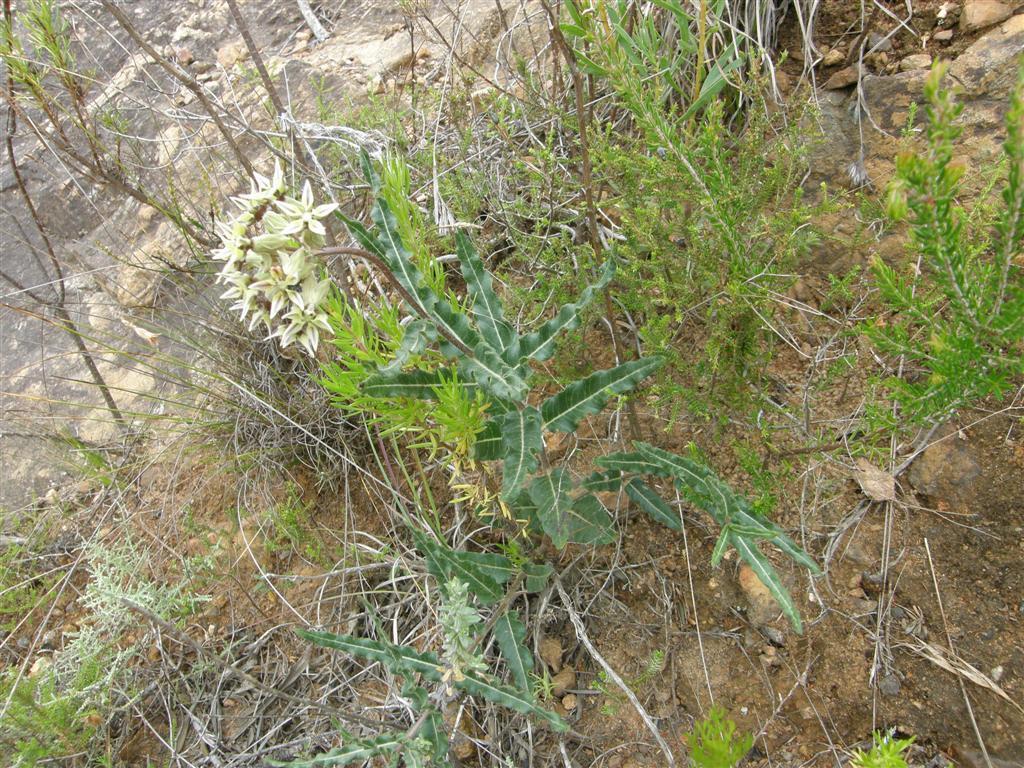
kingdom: Plantae
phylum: Tracheophyta
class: Magnoliopsida
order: Gentianales
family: Apocynaceae
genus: Asclepias
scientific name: Asclepias crispa
